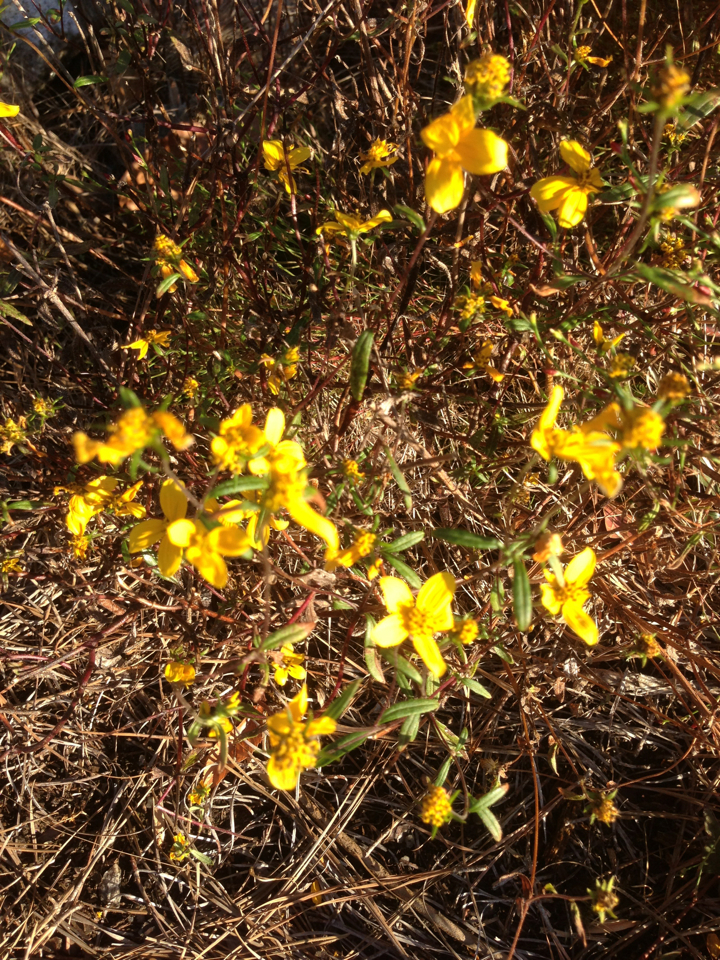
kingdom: Plantae
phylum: Tracheophyta
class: Magnoliopsida
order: Asterales
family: Asteraceae
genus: Helianthus
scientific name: Helianthus porteri
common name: Porter's sunflower
